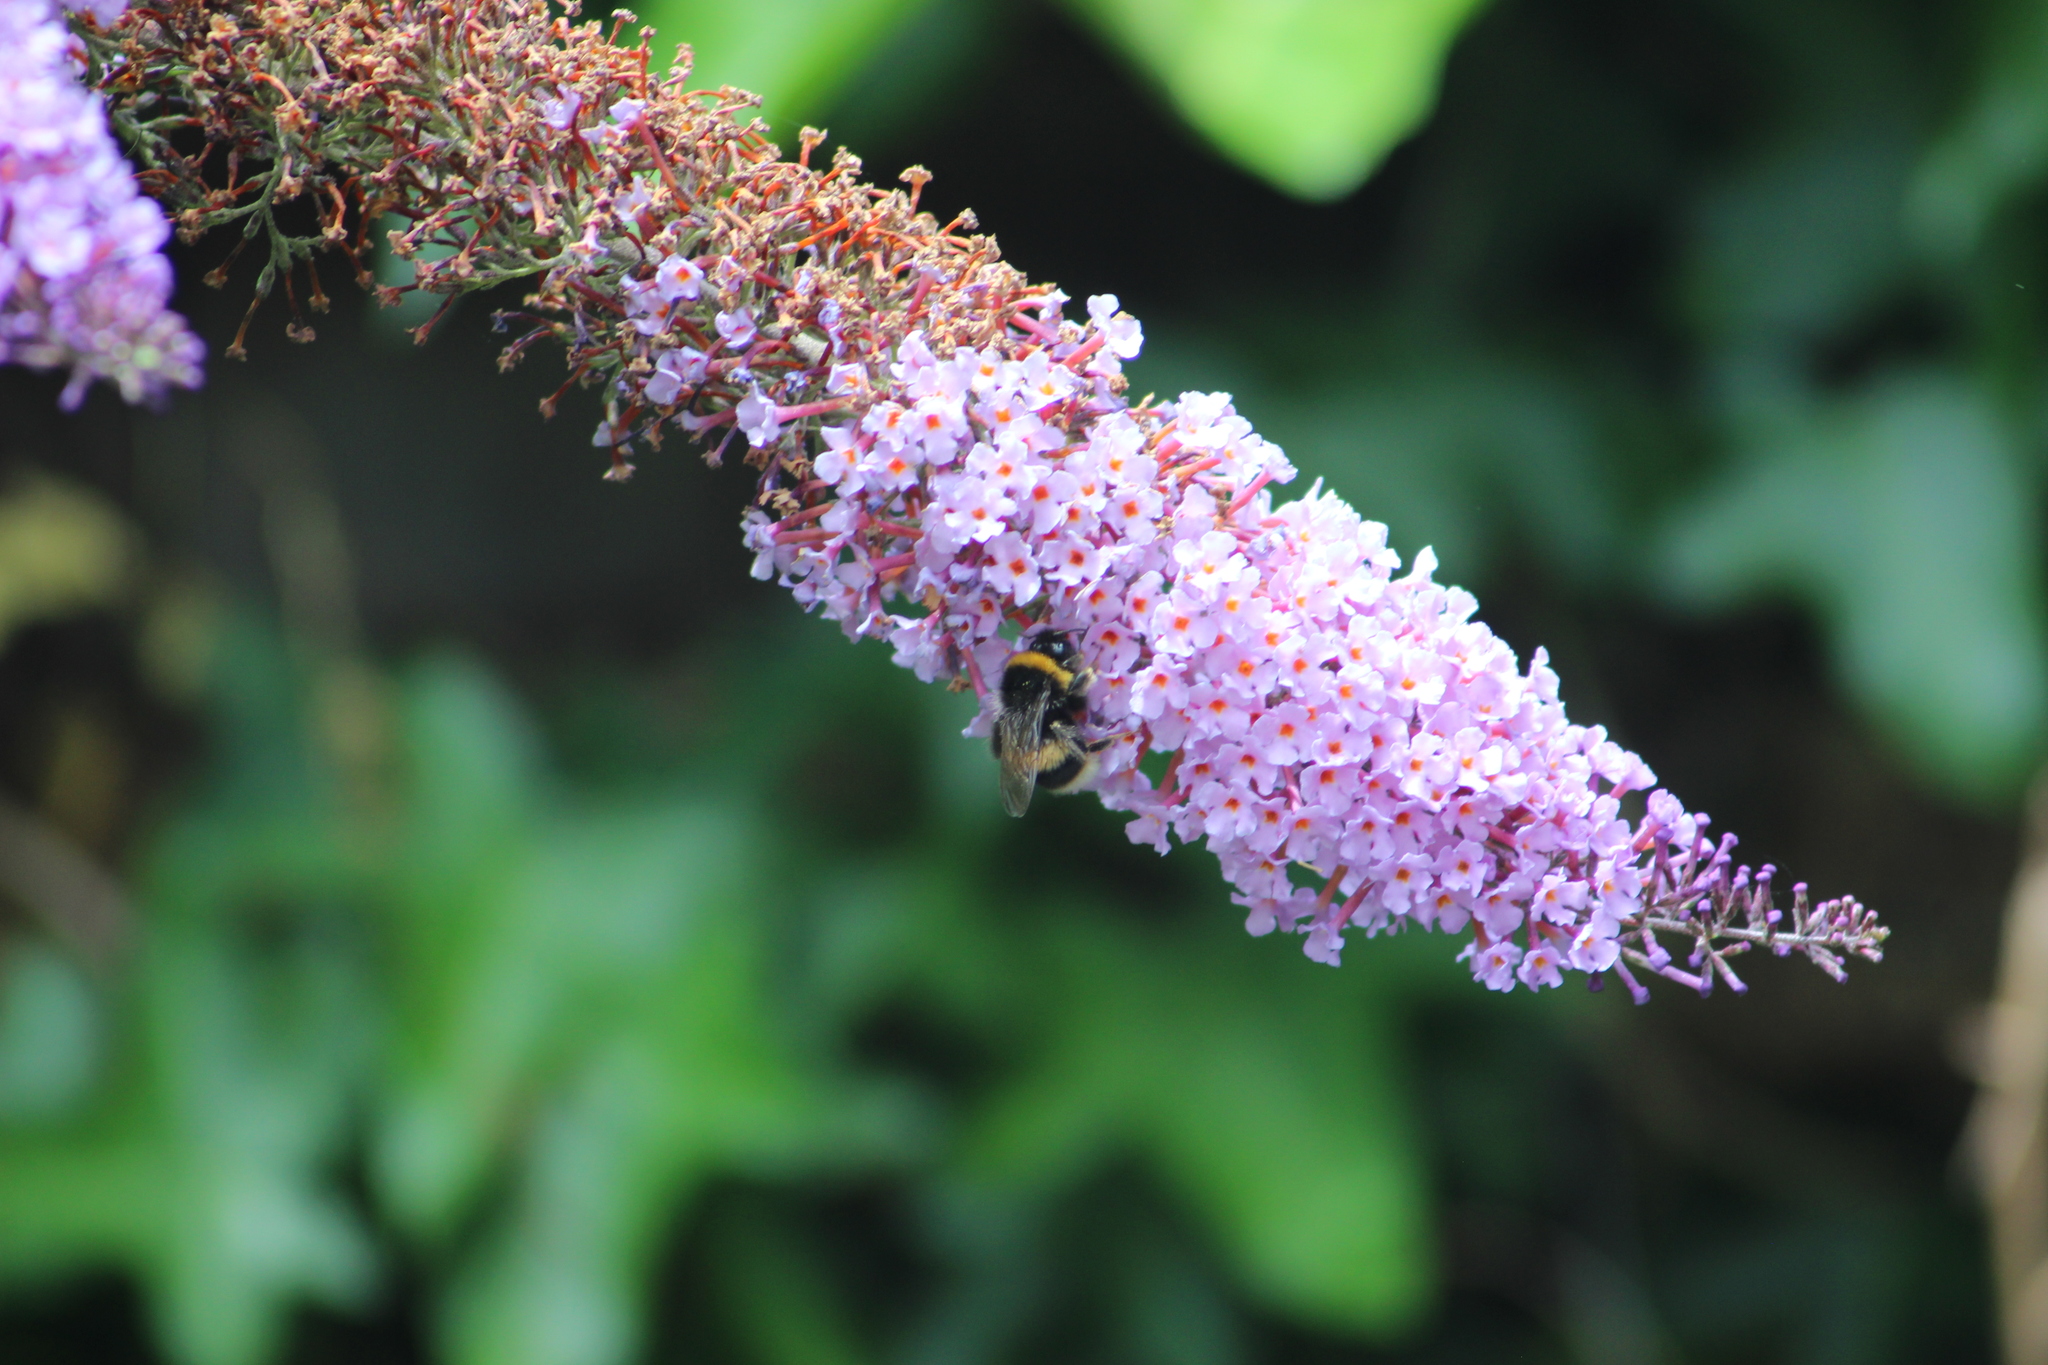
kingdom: Animalia
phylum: Arthropoda
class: Insecta
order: Hymenoptera
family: Apidae
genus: Bombus
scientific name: Bombus terrestris
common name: Buff-tailed bumblebee
